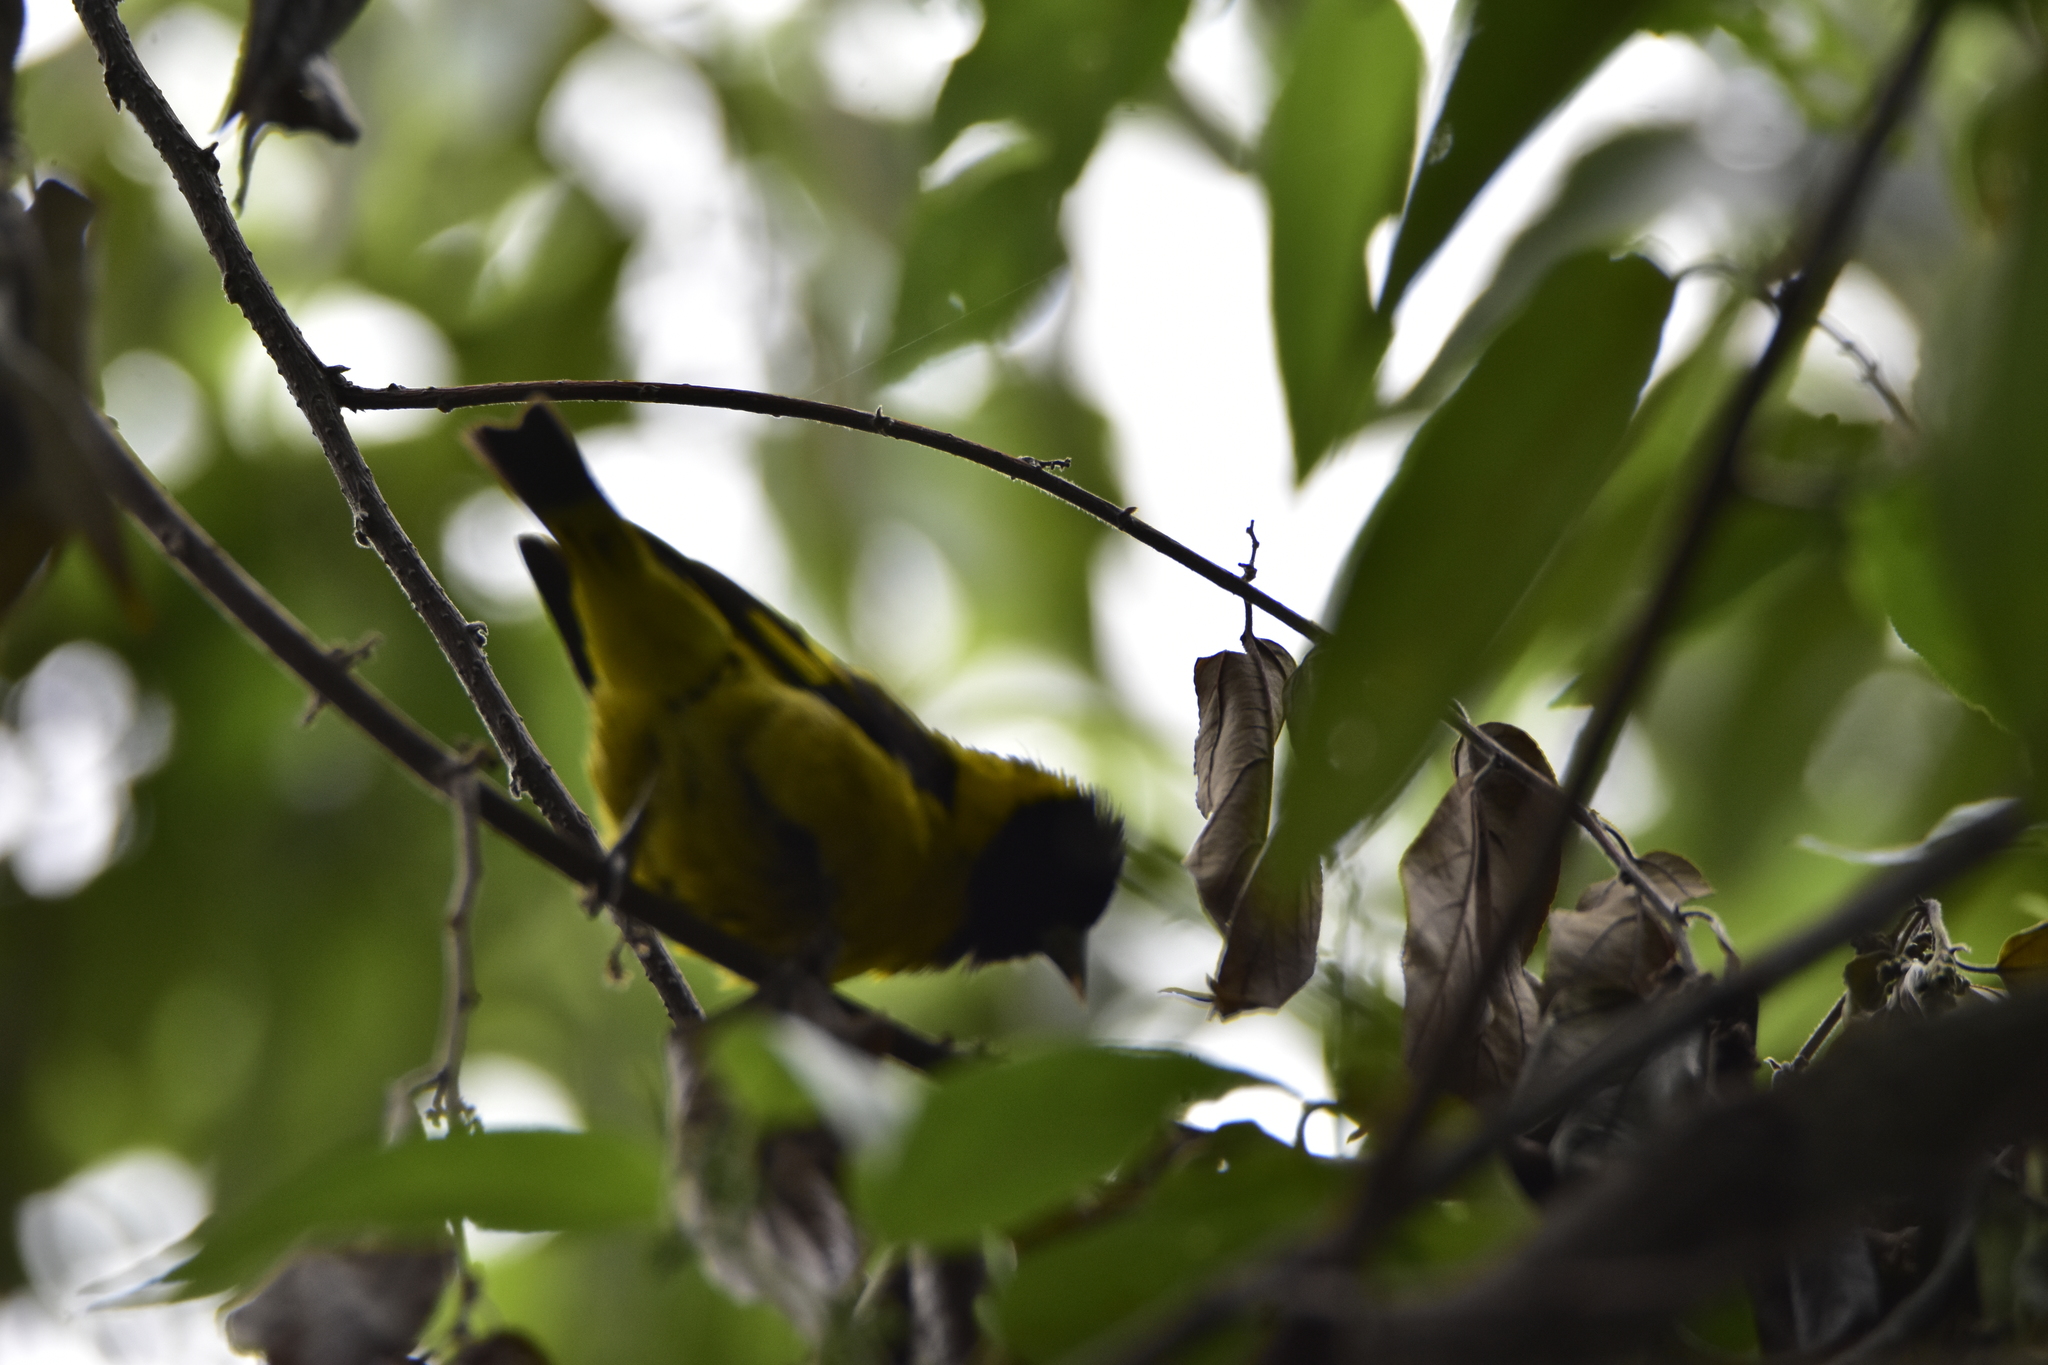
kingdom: Animalia
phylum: Chordata
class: Aves
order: Passeriformes
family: Fringillidae
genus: Spinus
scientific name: Spinus notatus
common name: Black-headed siskin
